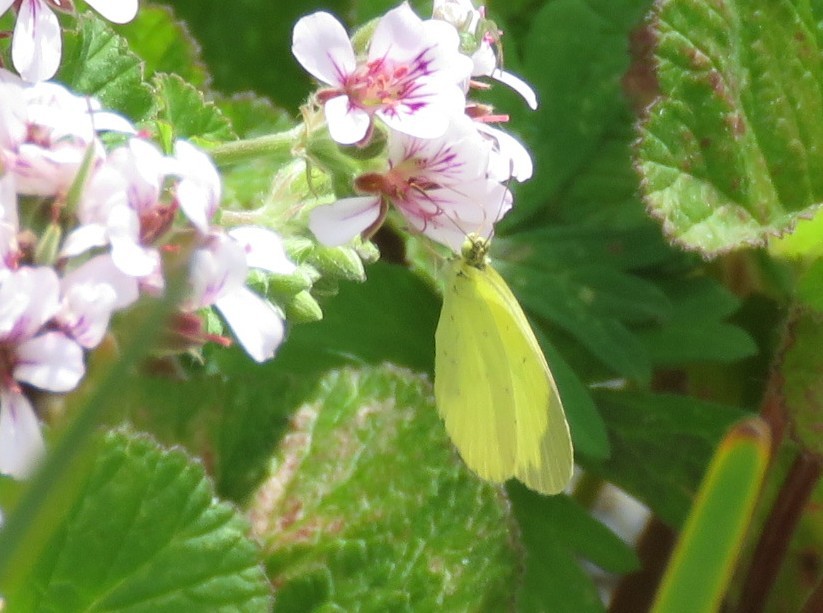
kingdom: Animalia
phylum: Arthropoda
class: Insecta
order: Lepidoptera
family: Pieridae
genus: Eurema
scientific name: Eurema smilax
